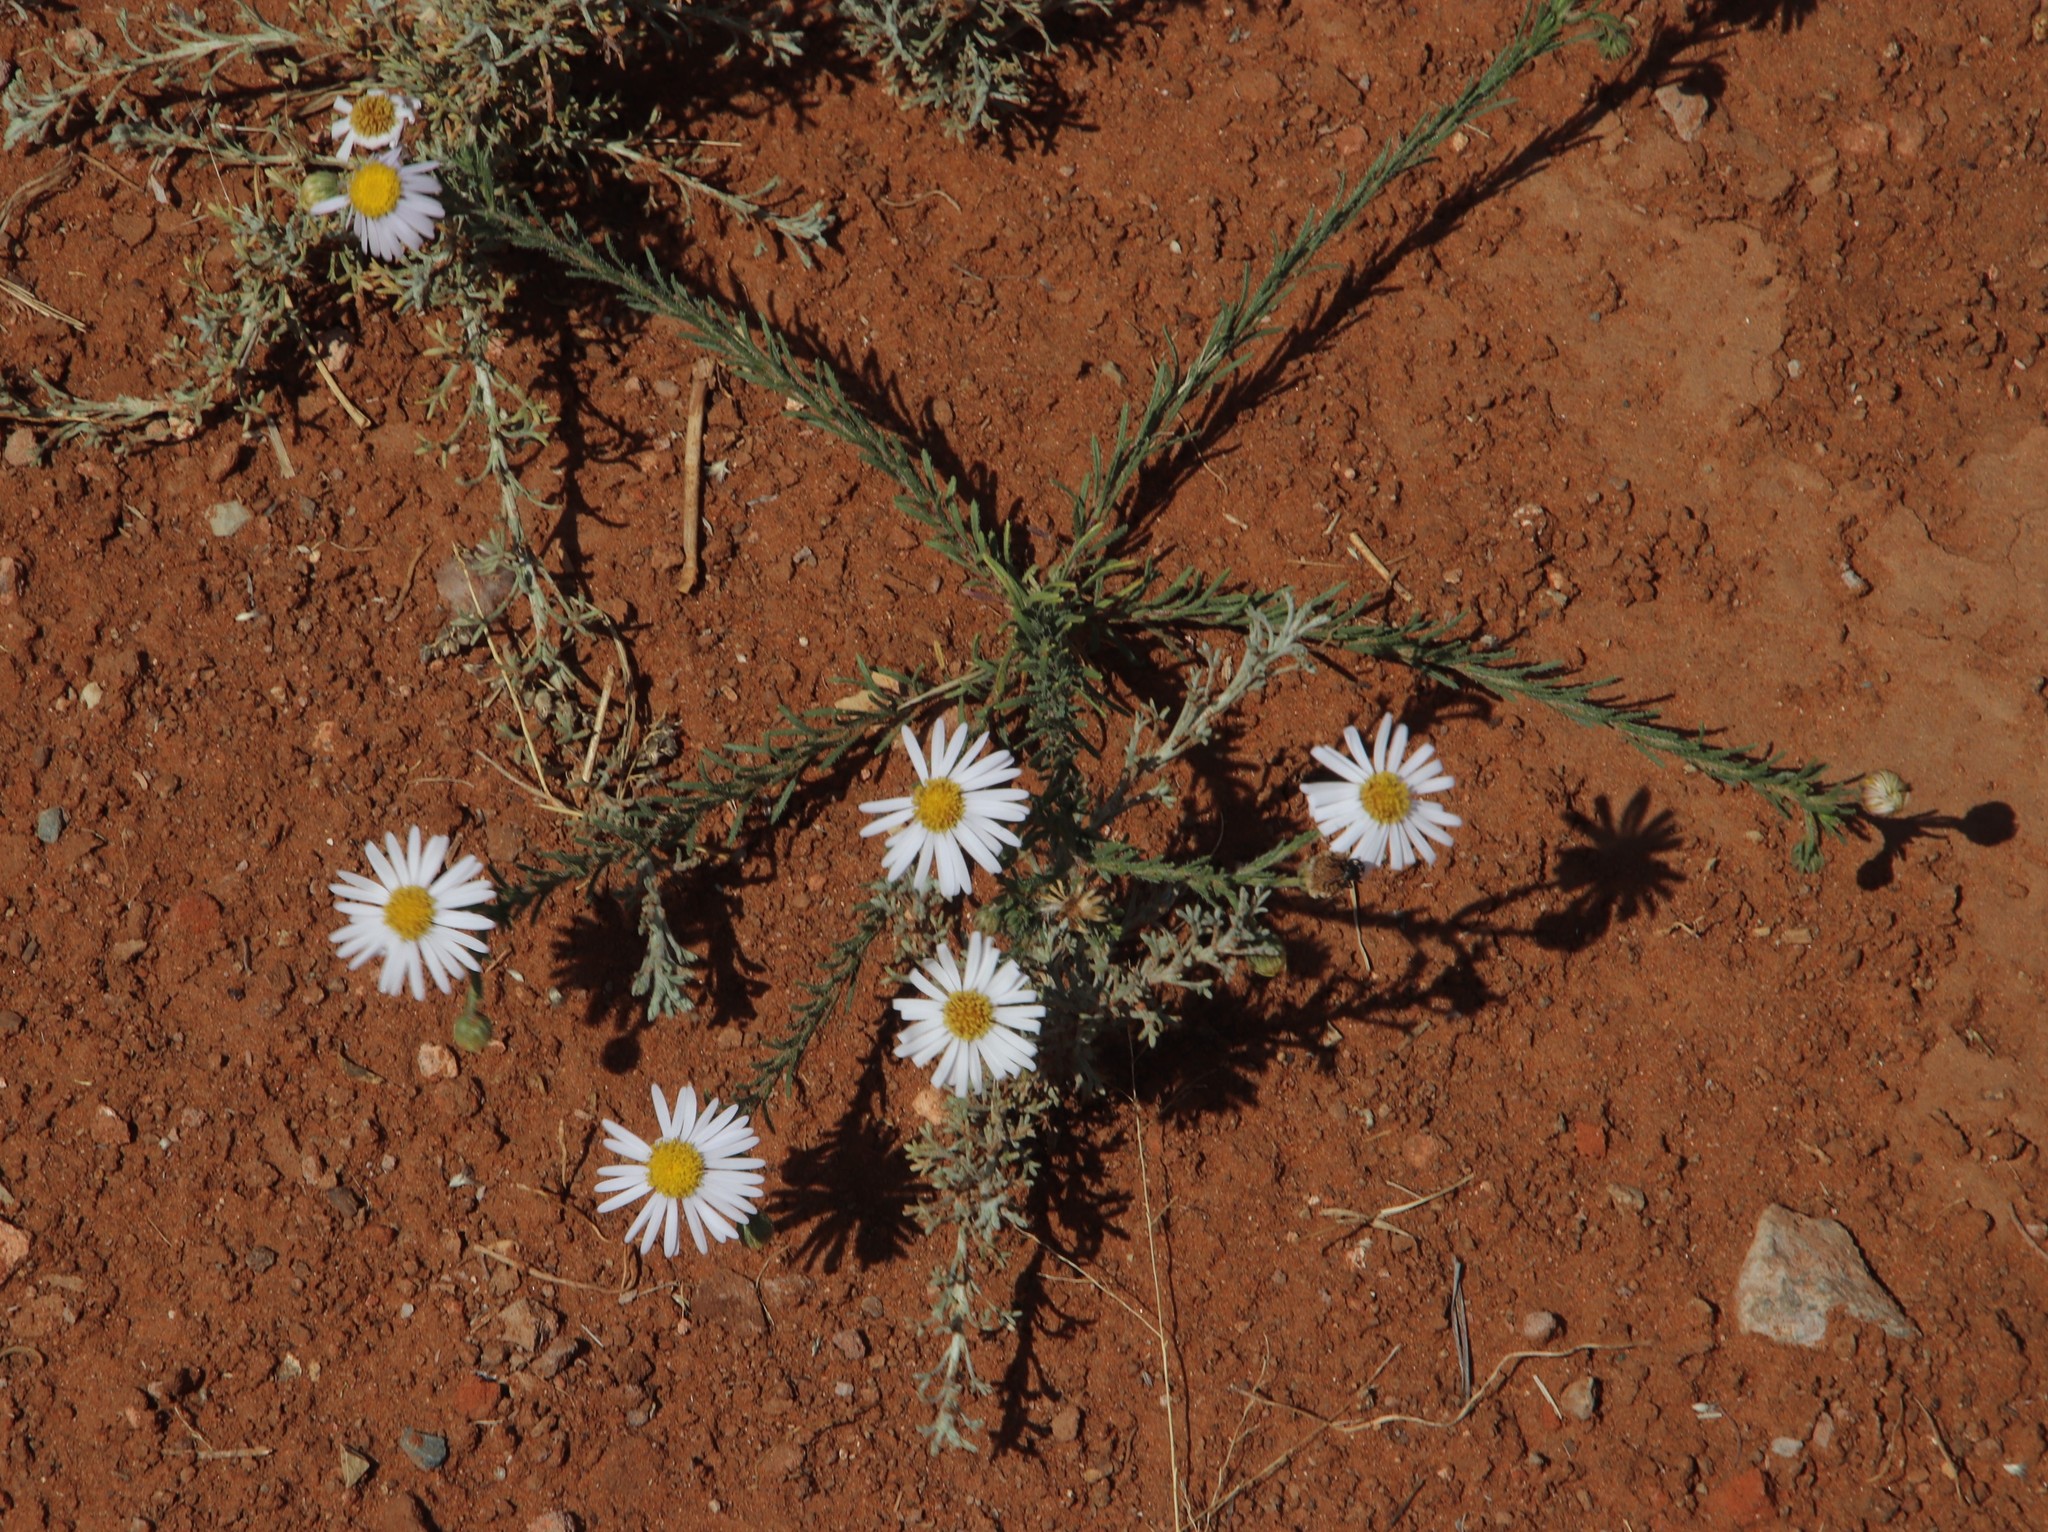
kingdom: Plantae
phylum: Tracheophyta
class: Magnoliopsida
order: Asterales
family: Asteraceae
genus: Felicia
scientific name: Felicia muricata
